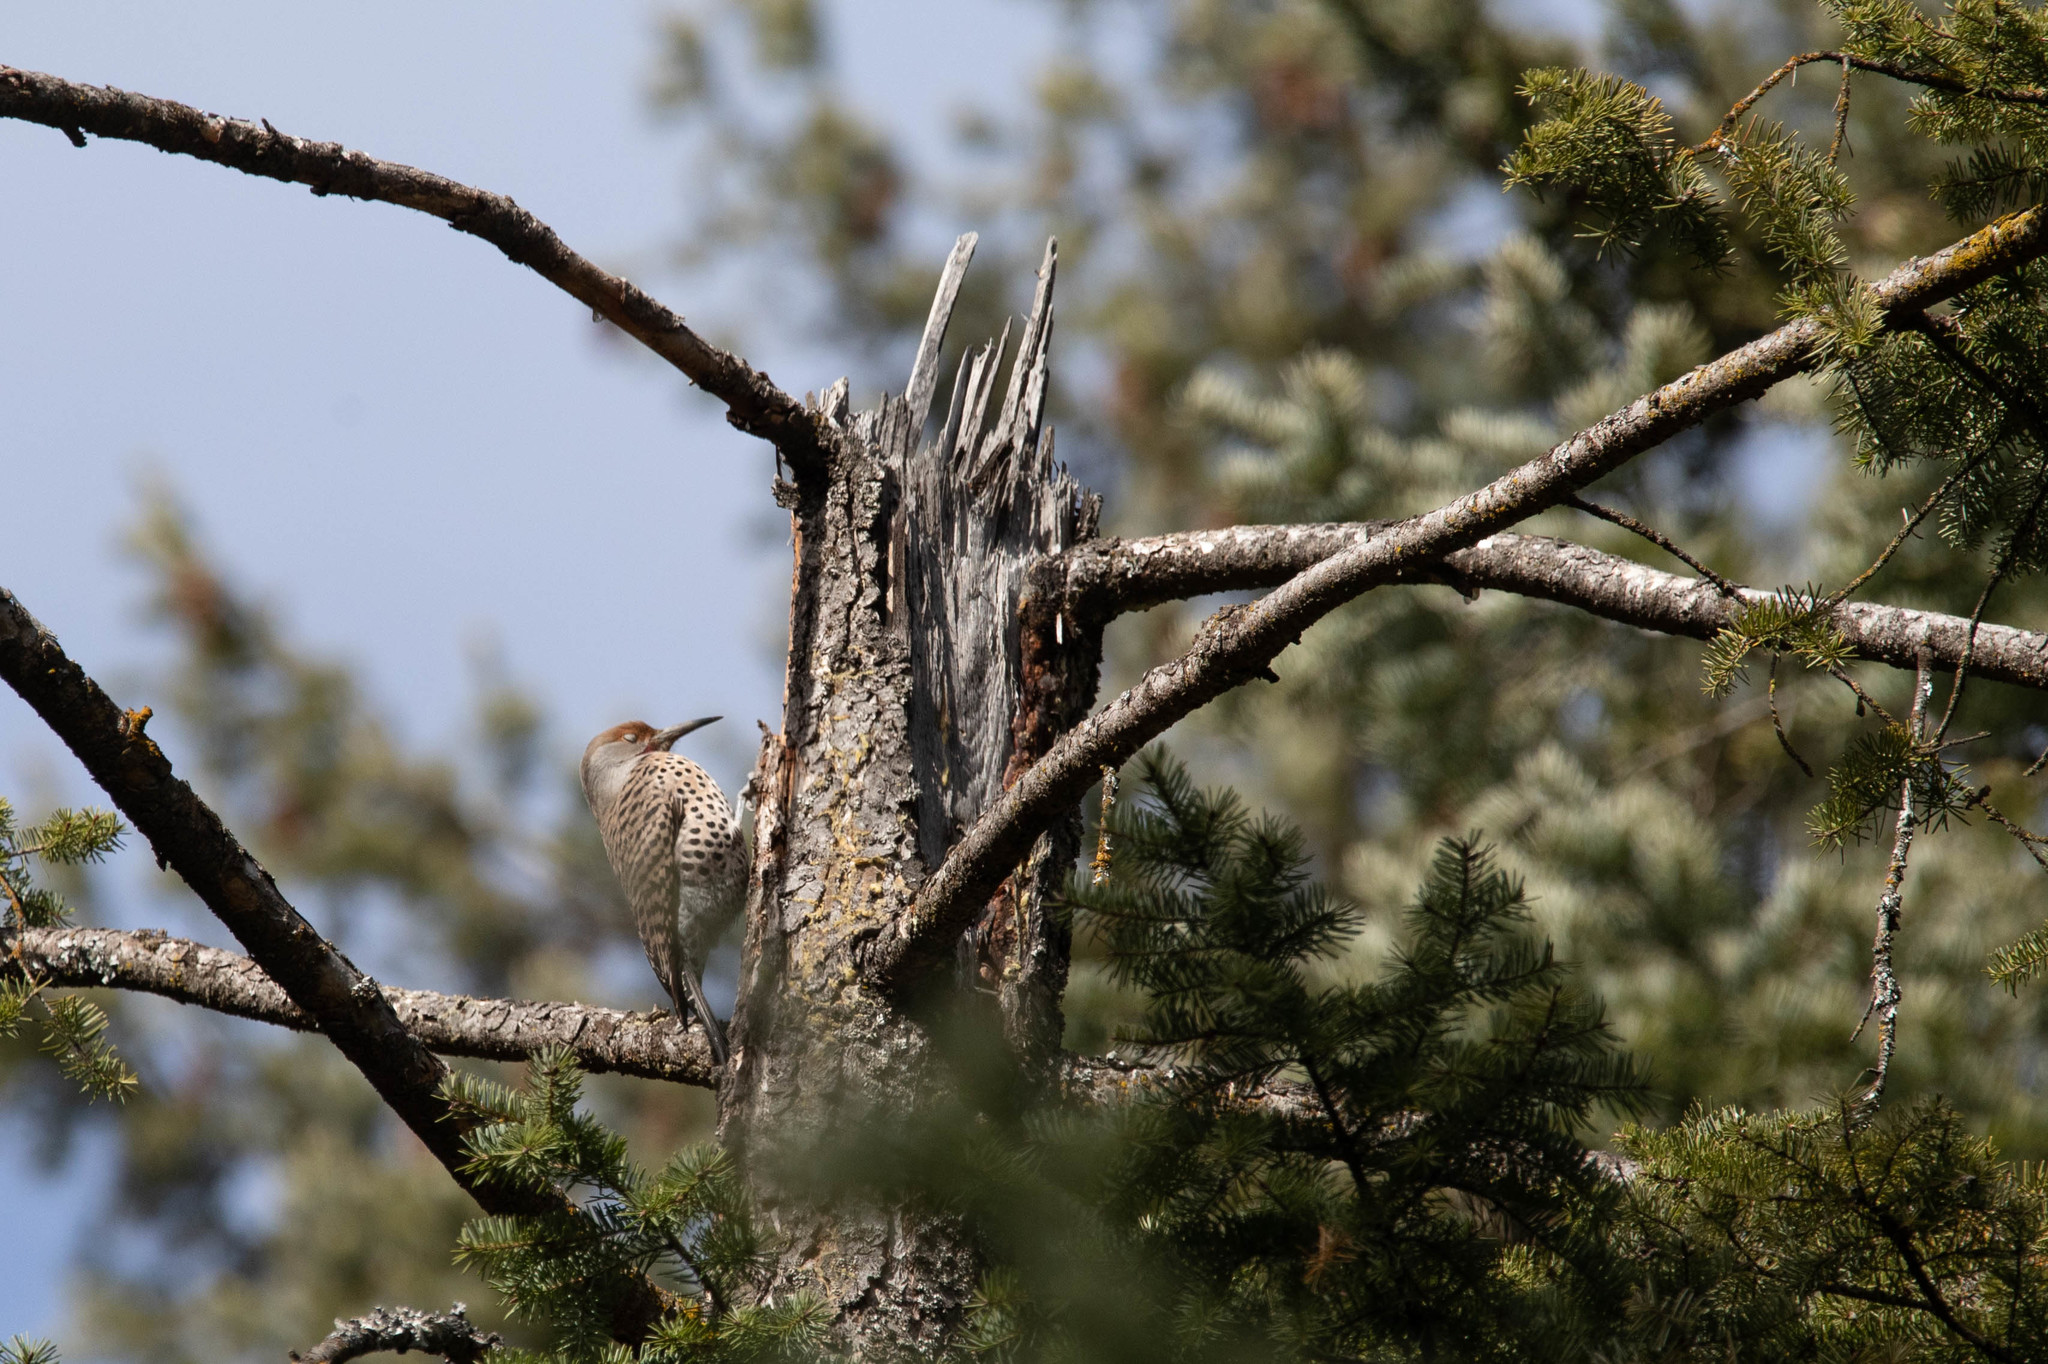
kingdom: Animalia
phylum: Chordata
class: Aves
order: Piciformes
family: Picidae
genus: Colaptes
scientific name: Colaptes auratus
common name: Northern flicker
